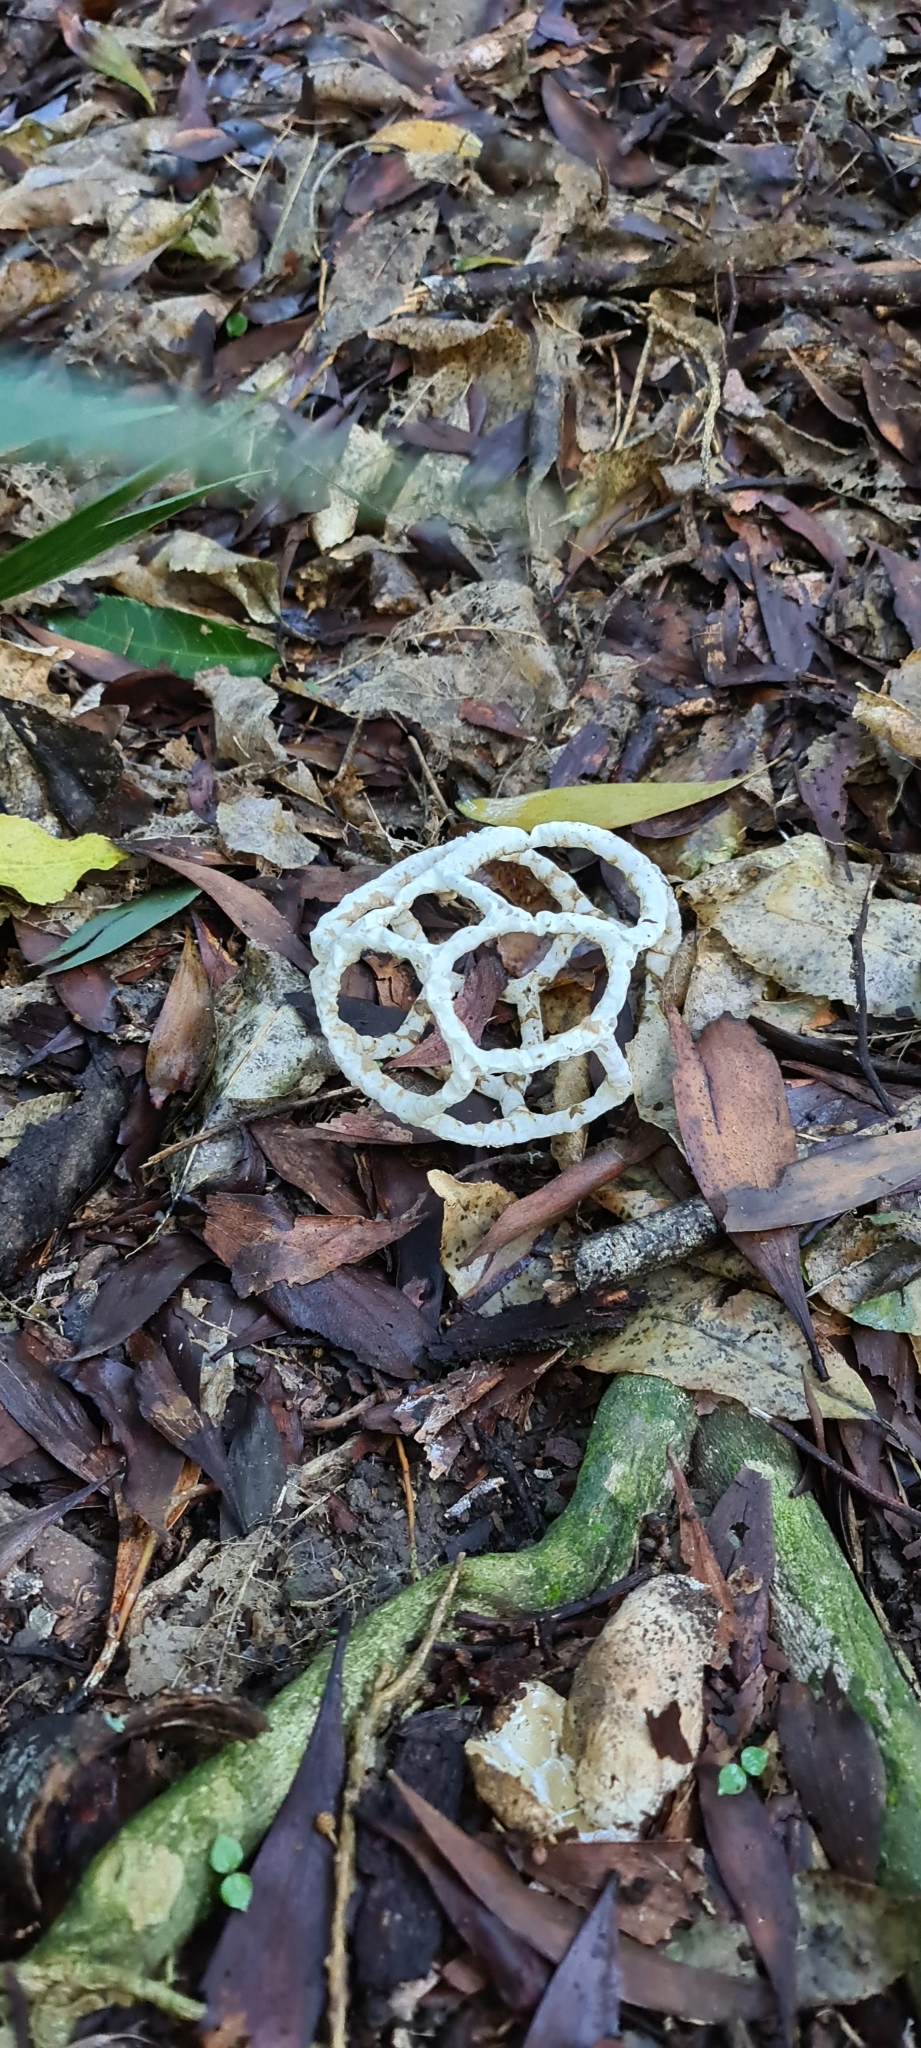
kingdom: Fungi
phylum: Basidiomycota
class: Agaricomycetes
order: Phallales
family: Phallaceae
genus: Ileodictyon
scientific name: Ileodictyon cibarium
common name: Basket fungus
